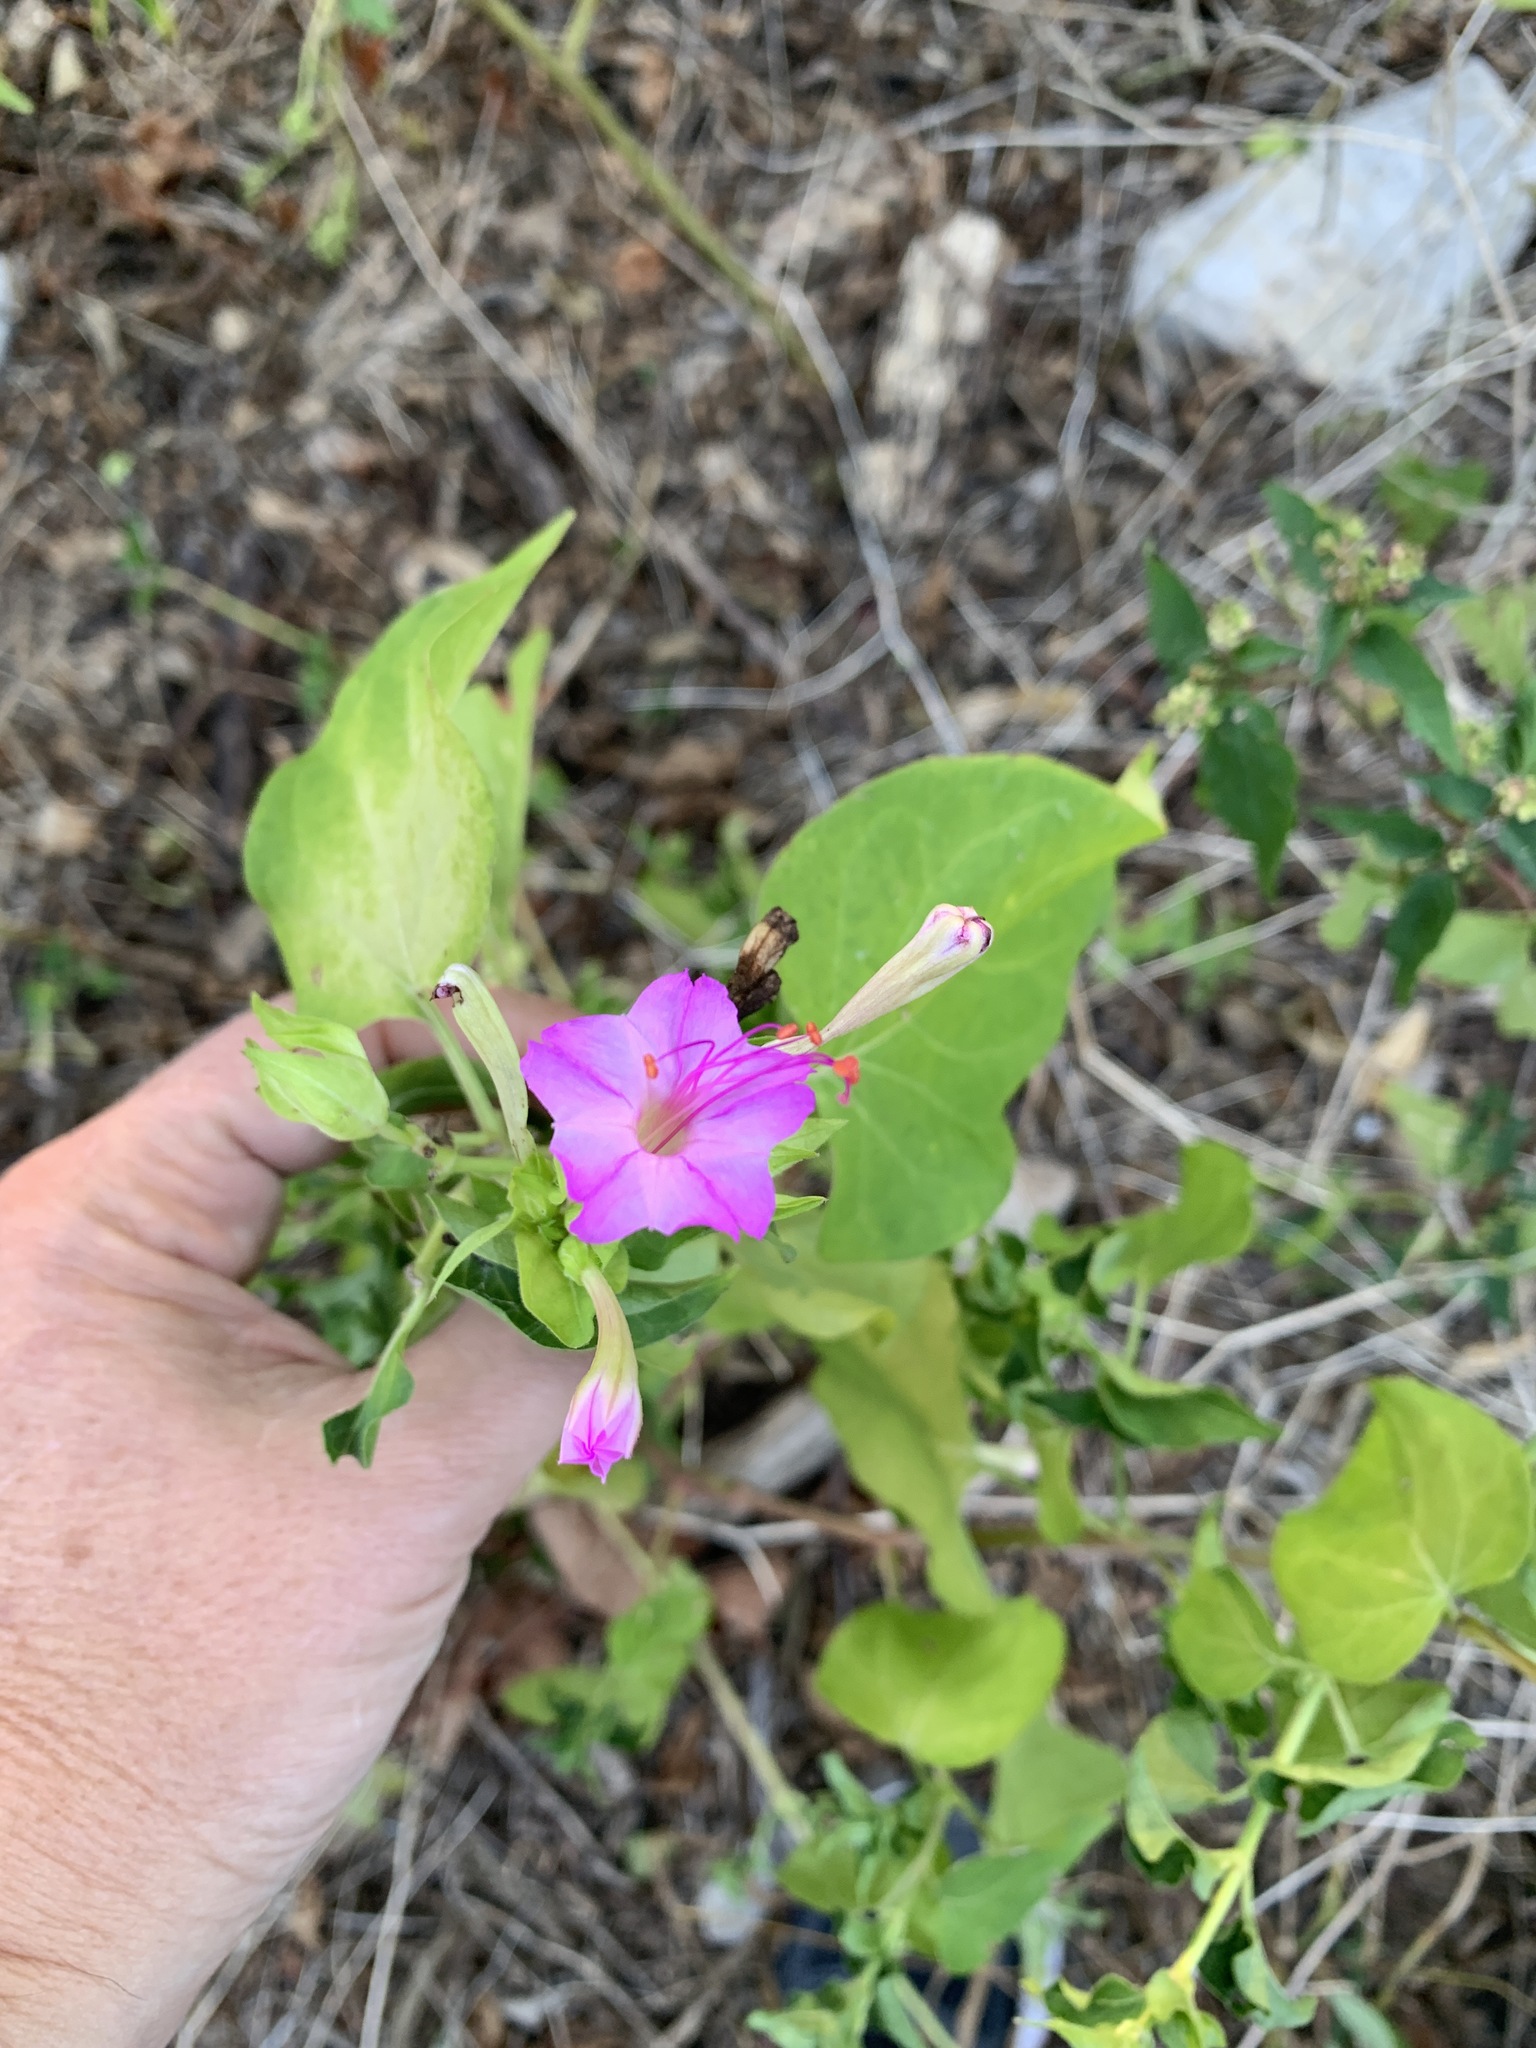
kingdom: Plantae
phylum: Tracheophyta
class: Magnoliopsida
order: Caryophyllales
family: Nyctaginaceae
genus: Mirabilis
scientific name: Mirabilis jalapa
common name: Marvel-of-peru
